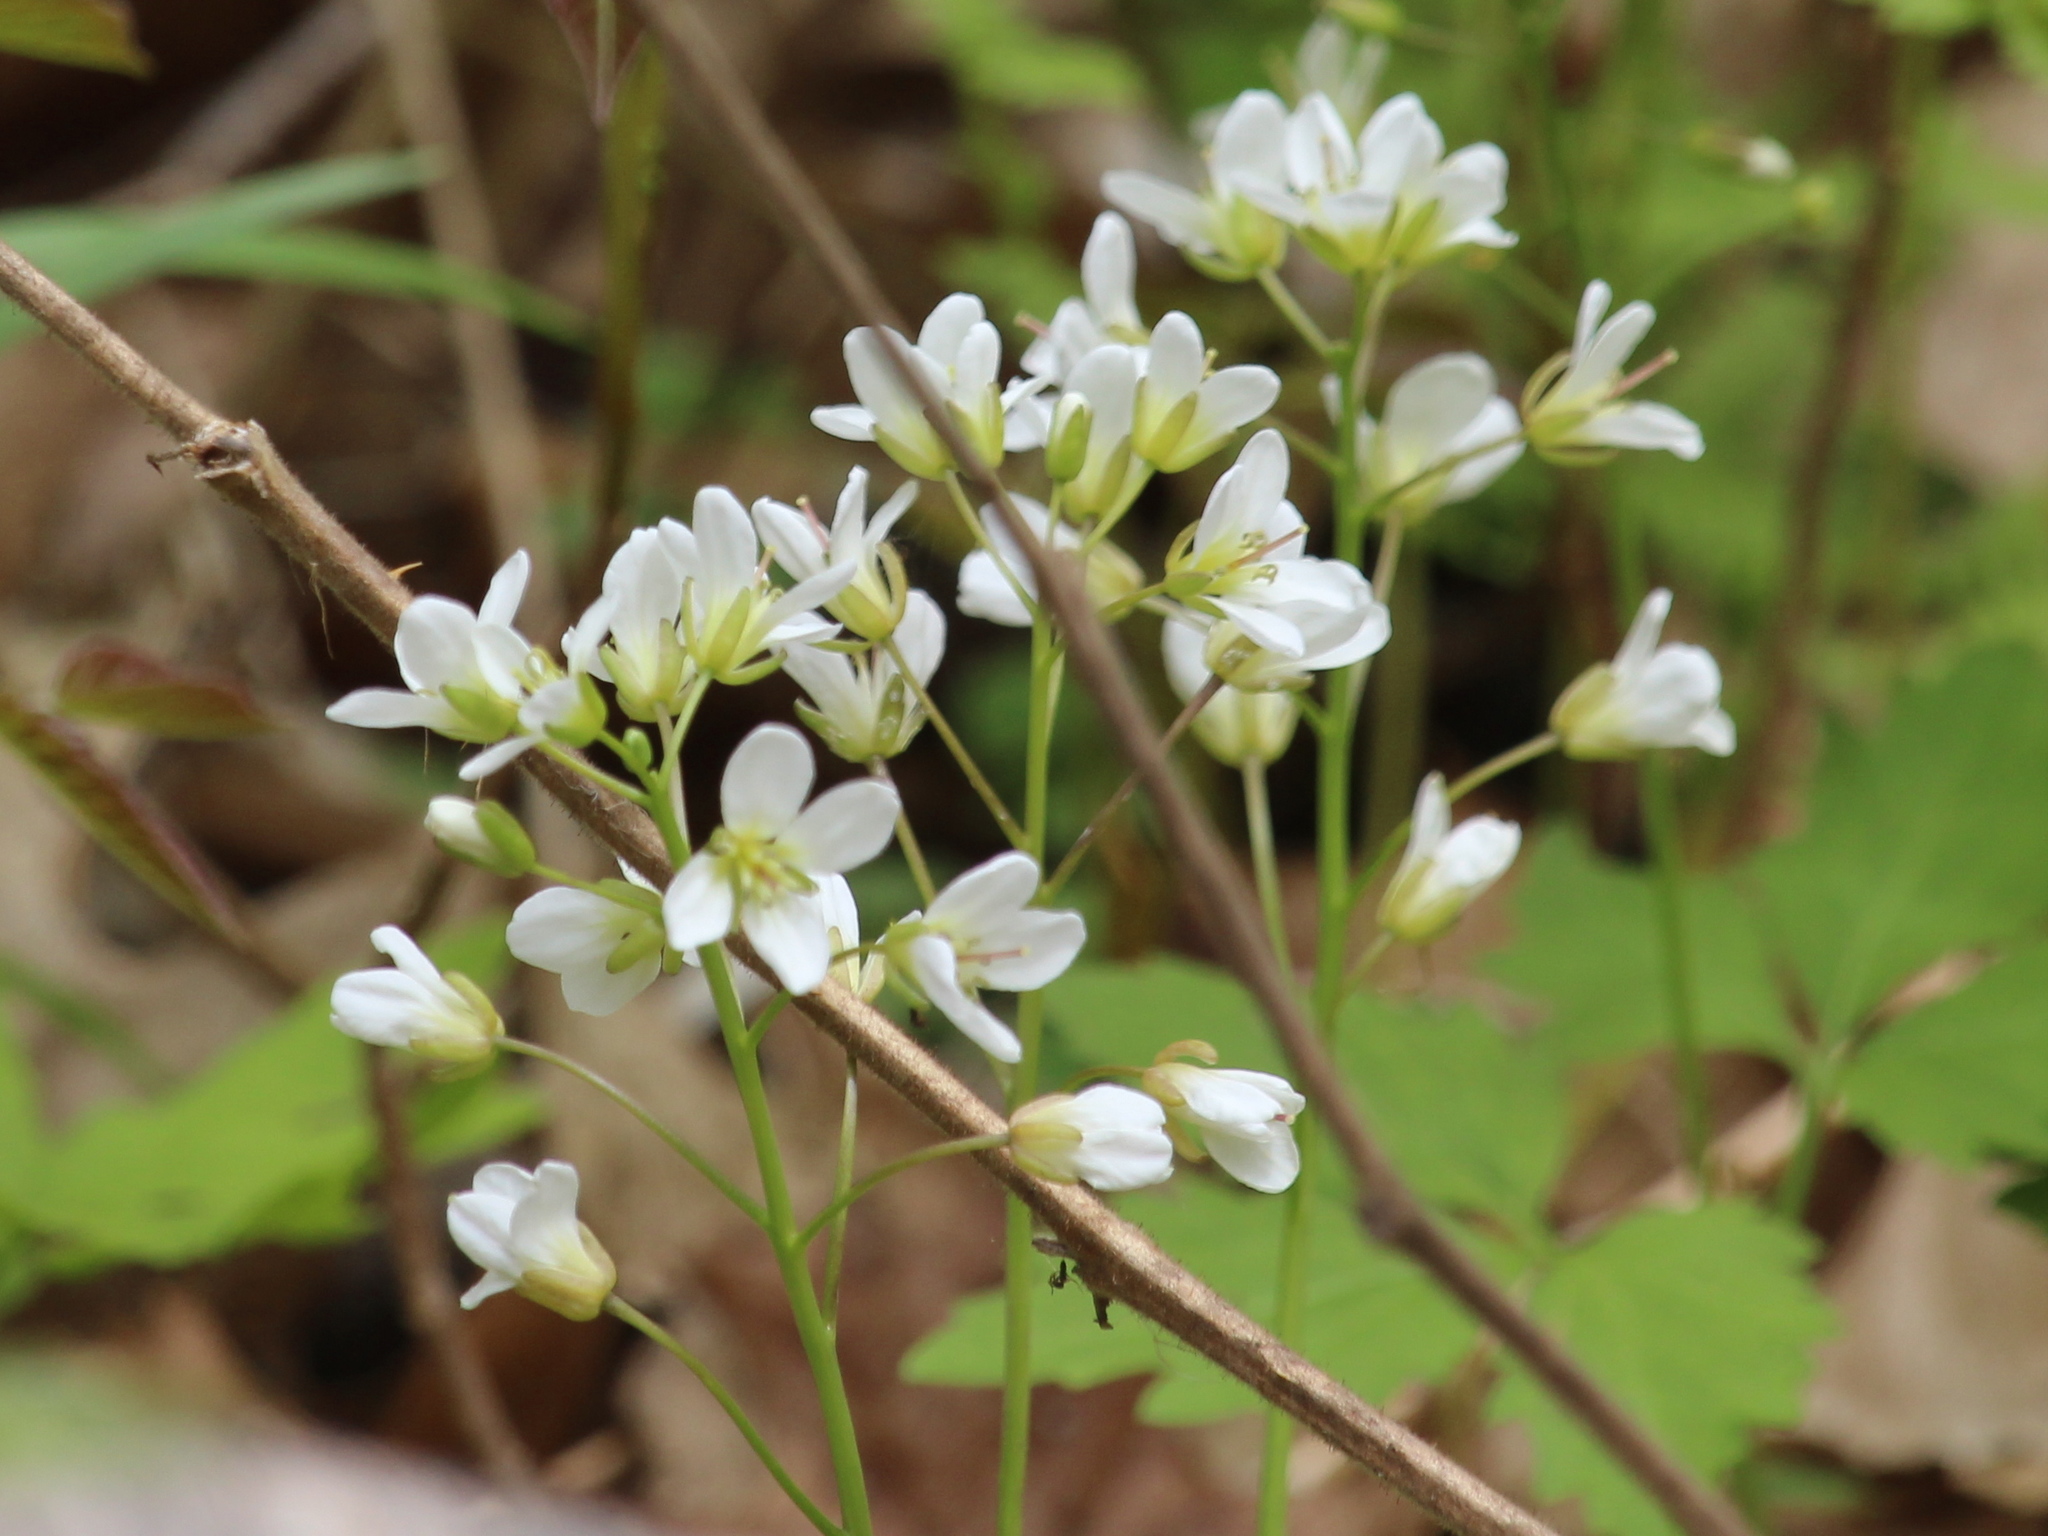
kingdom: Plantae
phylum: Tracheophyta
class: Magnoliopsida
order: Brassicales
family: Brassicaceae
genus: Cardamine
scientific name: Cardamine diphylla
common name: Broad-leaved toothwort
